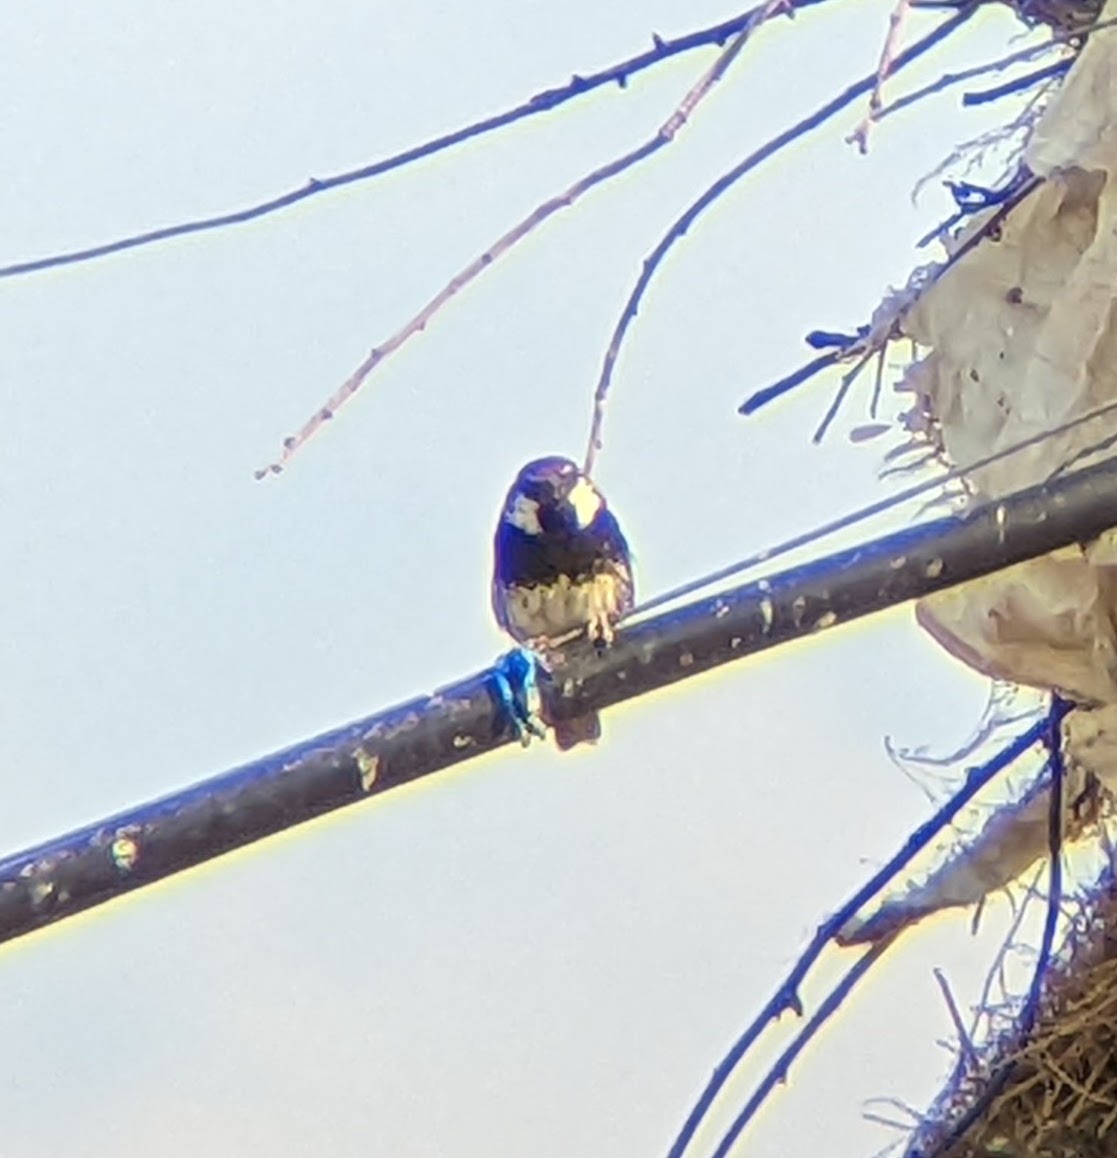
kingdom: Animalia
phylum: Chordata
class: Aves
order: Passeriformes
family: Passeridae
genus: Passer
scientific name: Passer hispaniolensis
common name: Spanish sparrow
